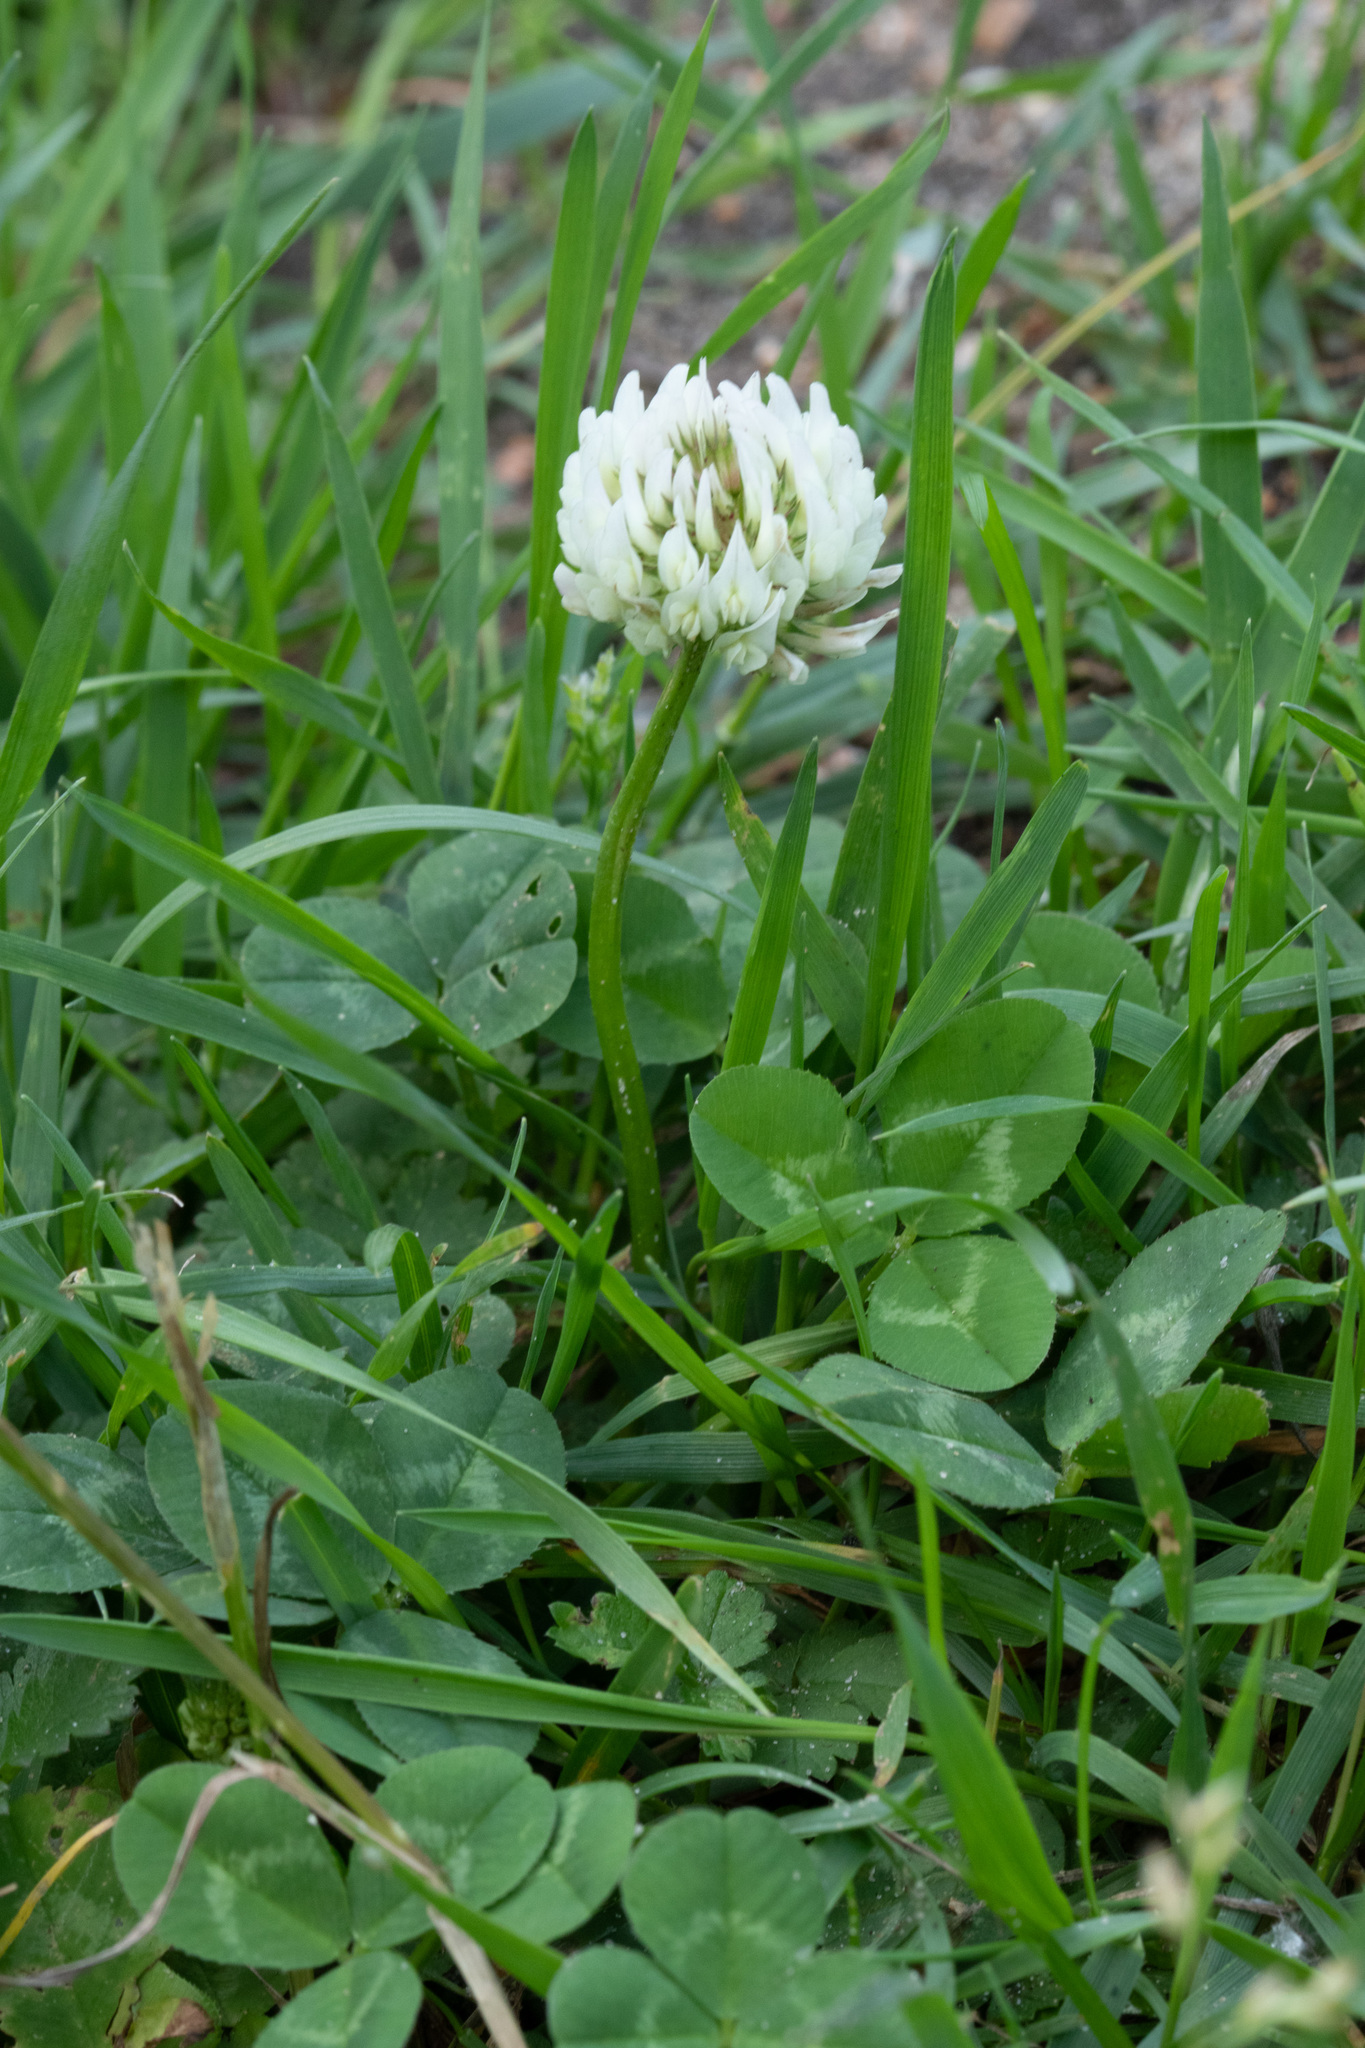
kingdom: Plantae
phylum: Tracheophyta
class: Magnoliopsida
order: Fabales
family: Fabaceae
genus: Trifolium
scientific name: Trifolium repens
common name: White clover
